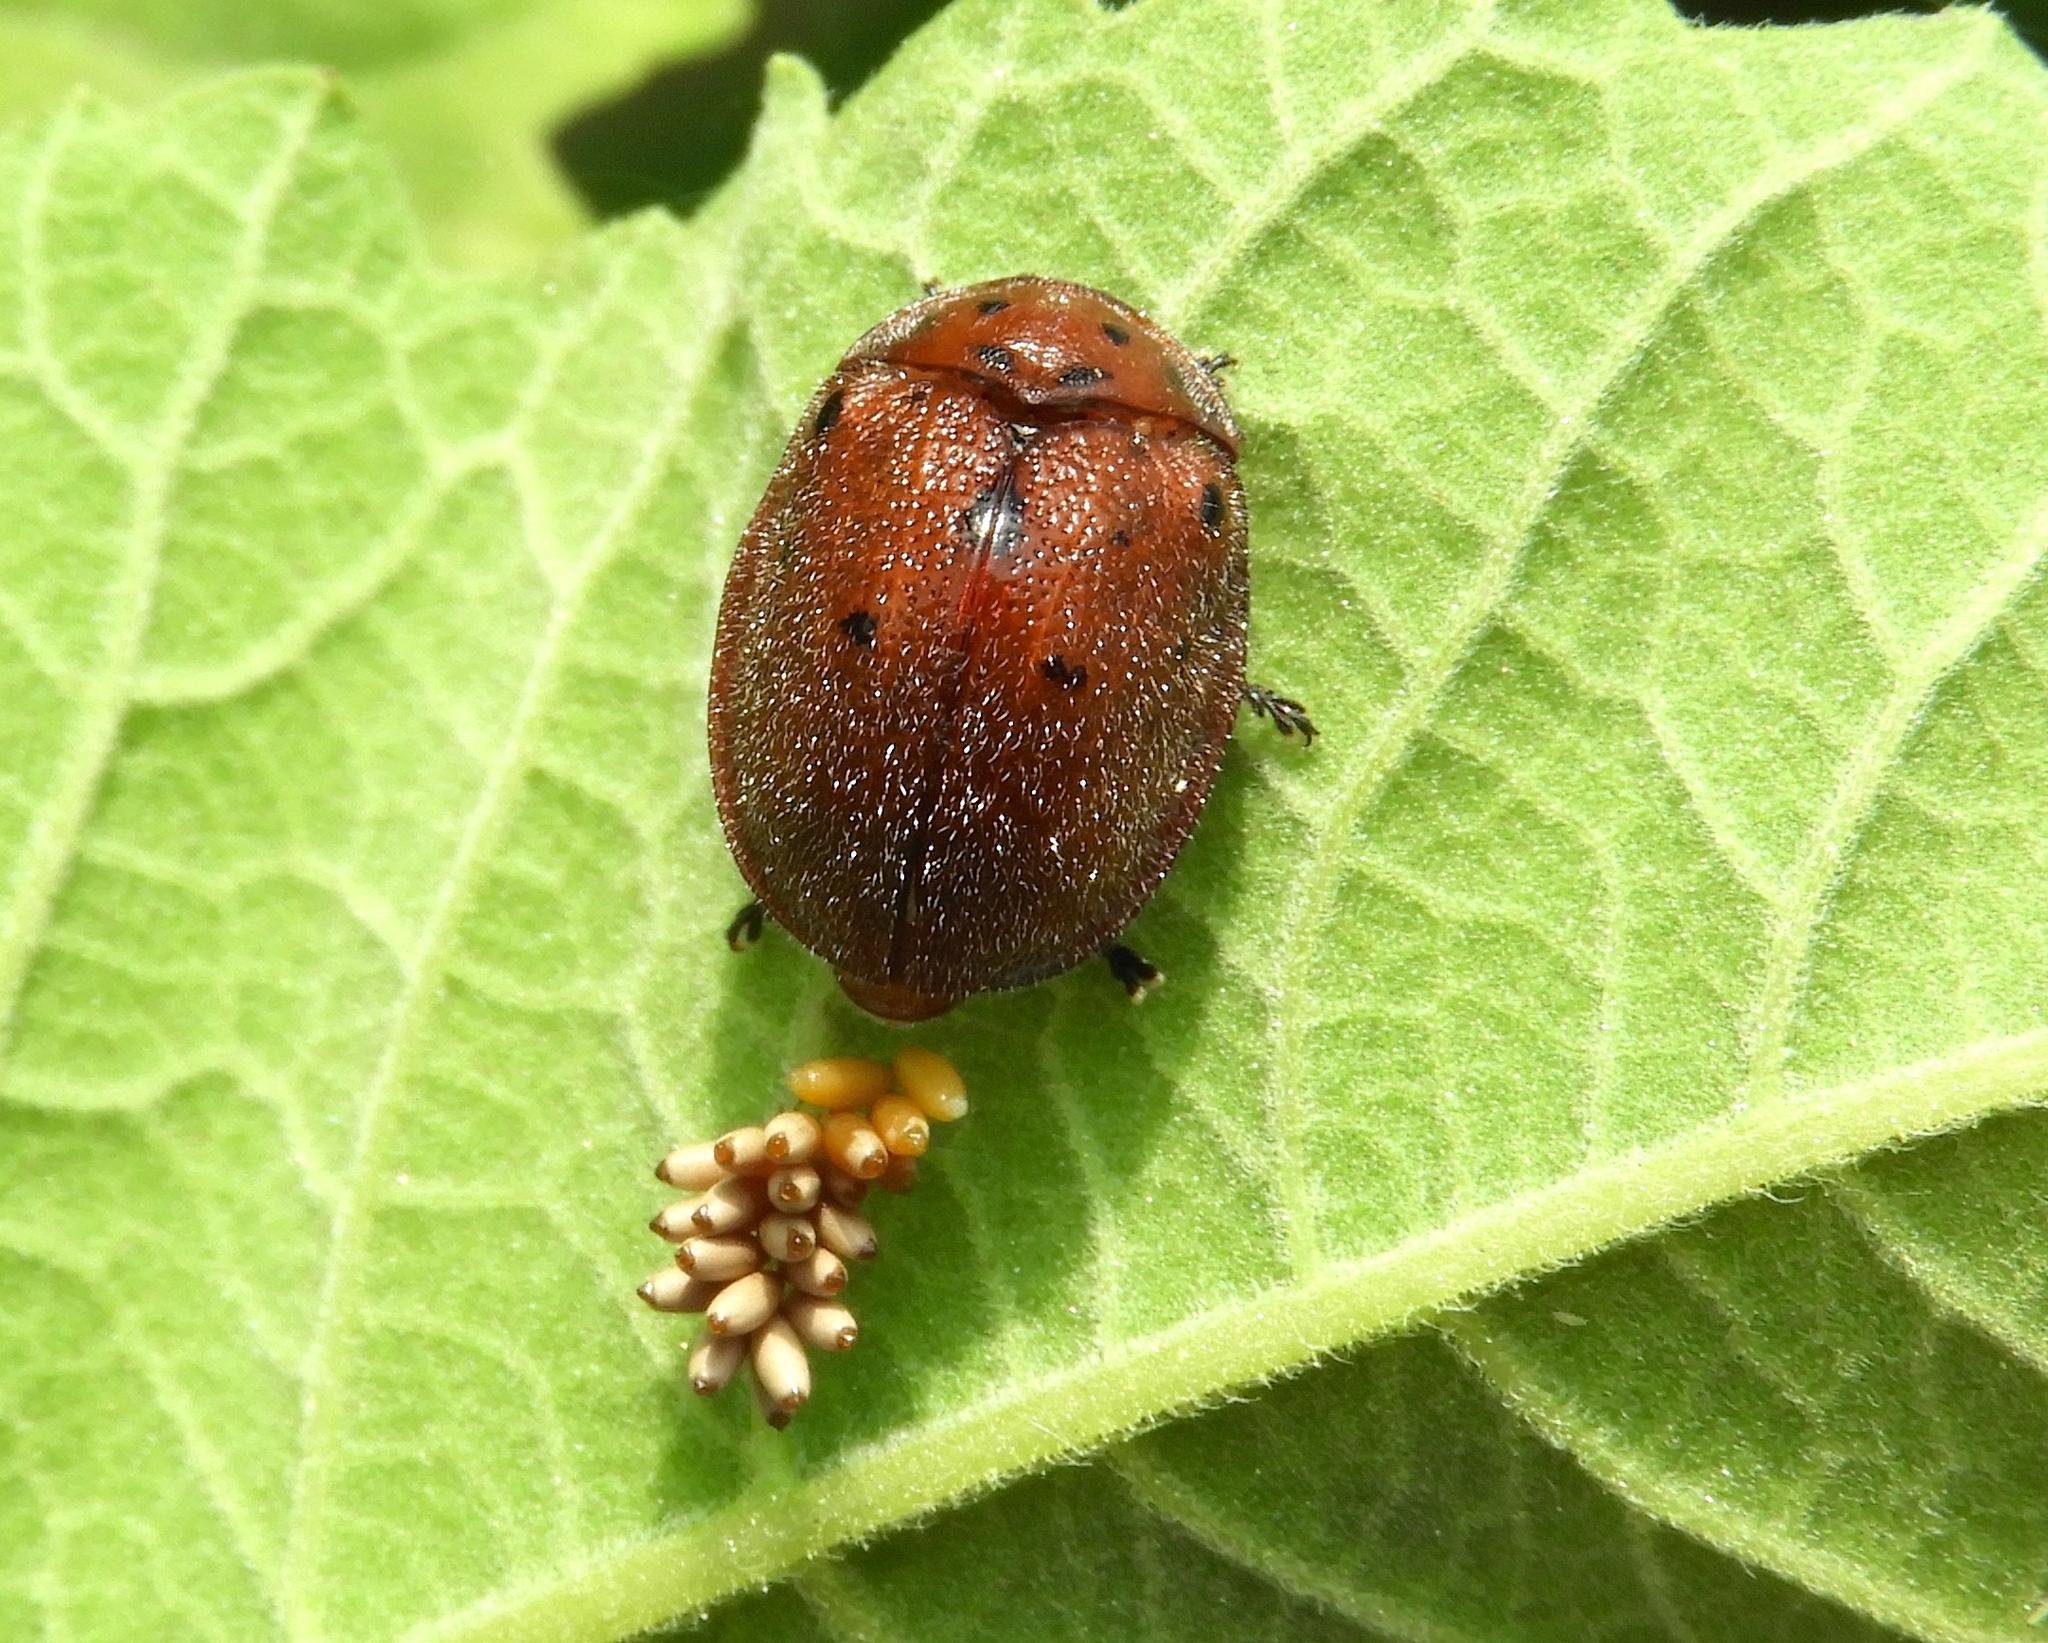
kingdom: Animalia
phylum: Arthropoda
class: Insecta
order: Coleoptera
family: Chrysomelidae
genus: Chelymorpha
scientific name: Chelymorpha
